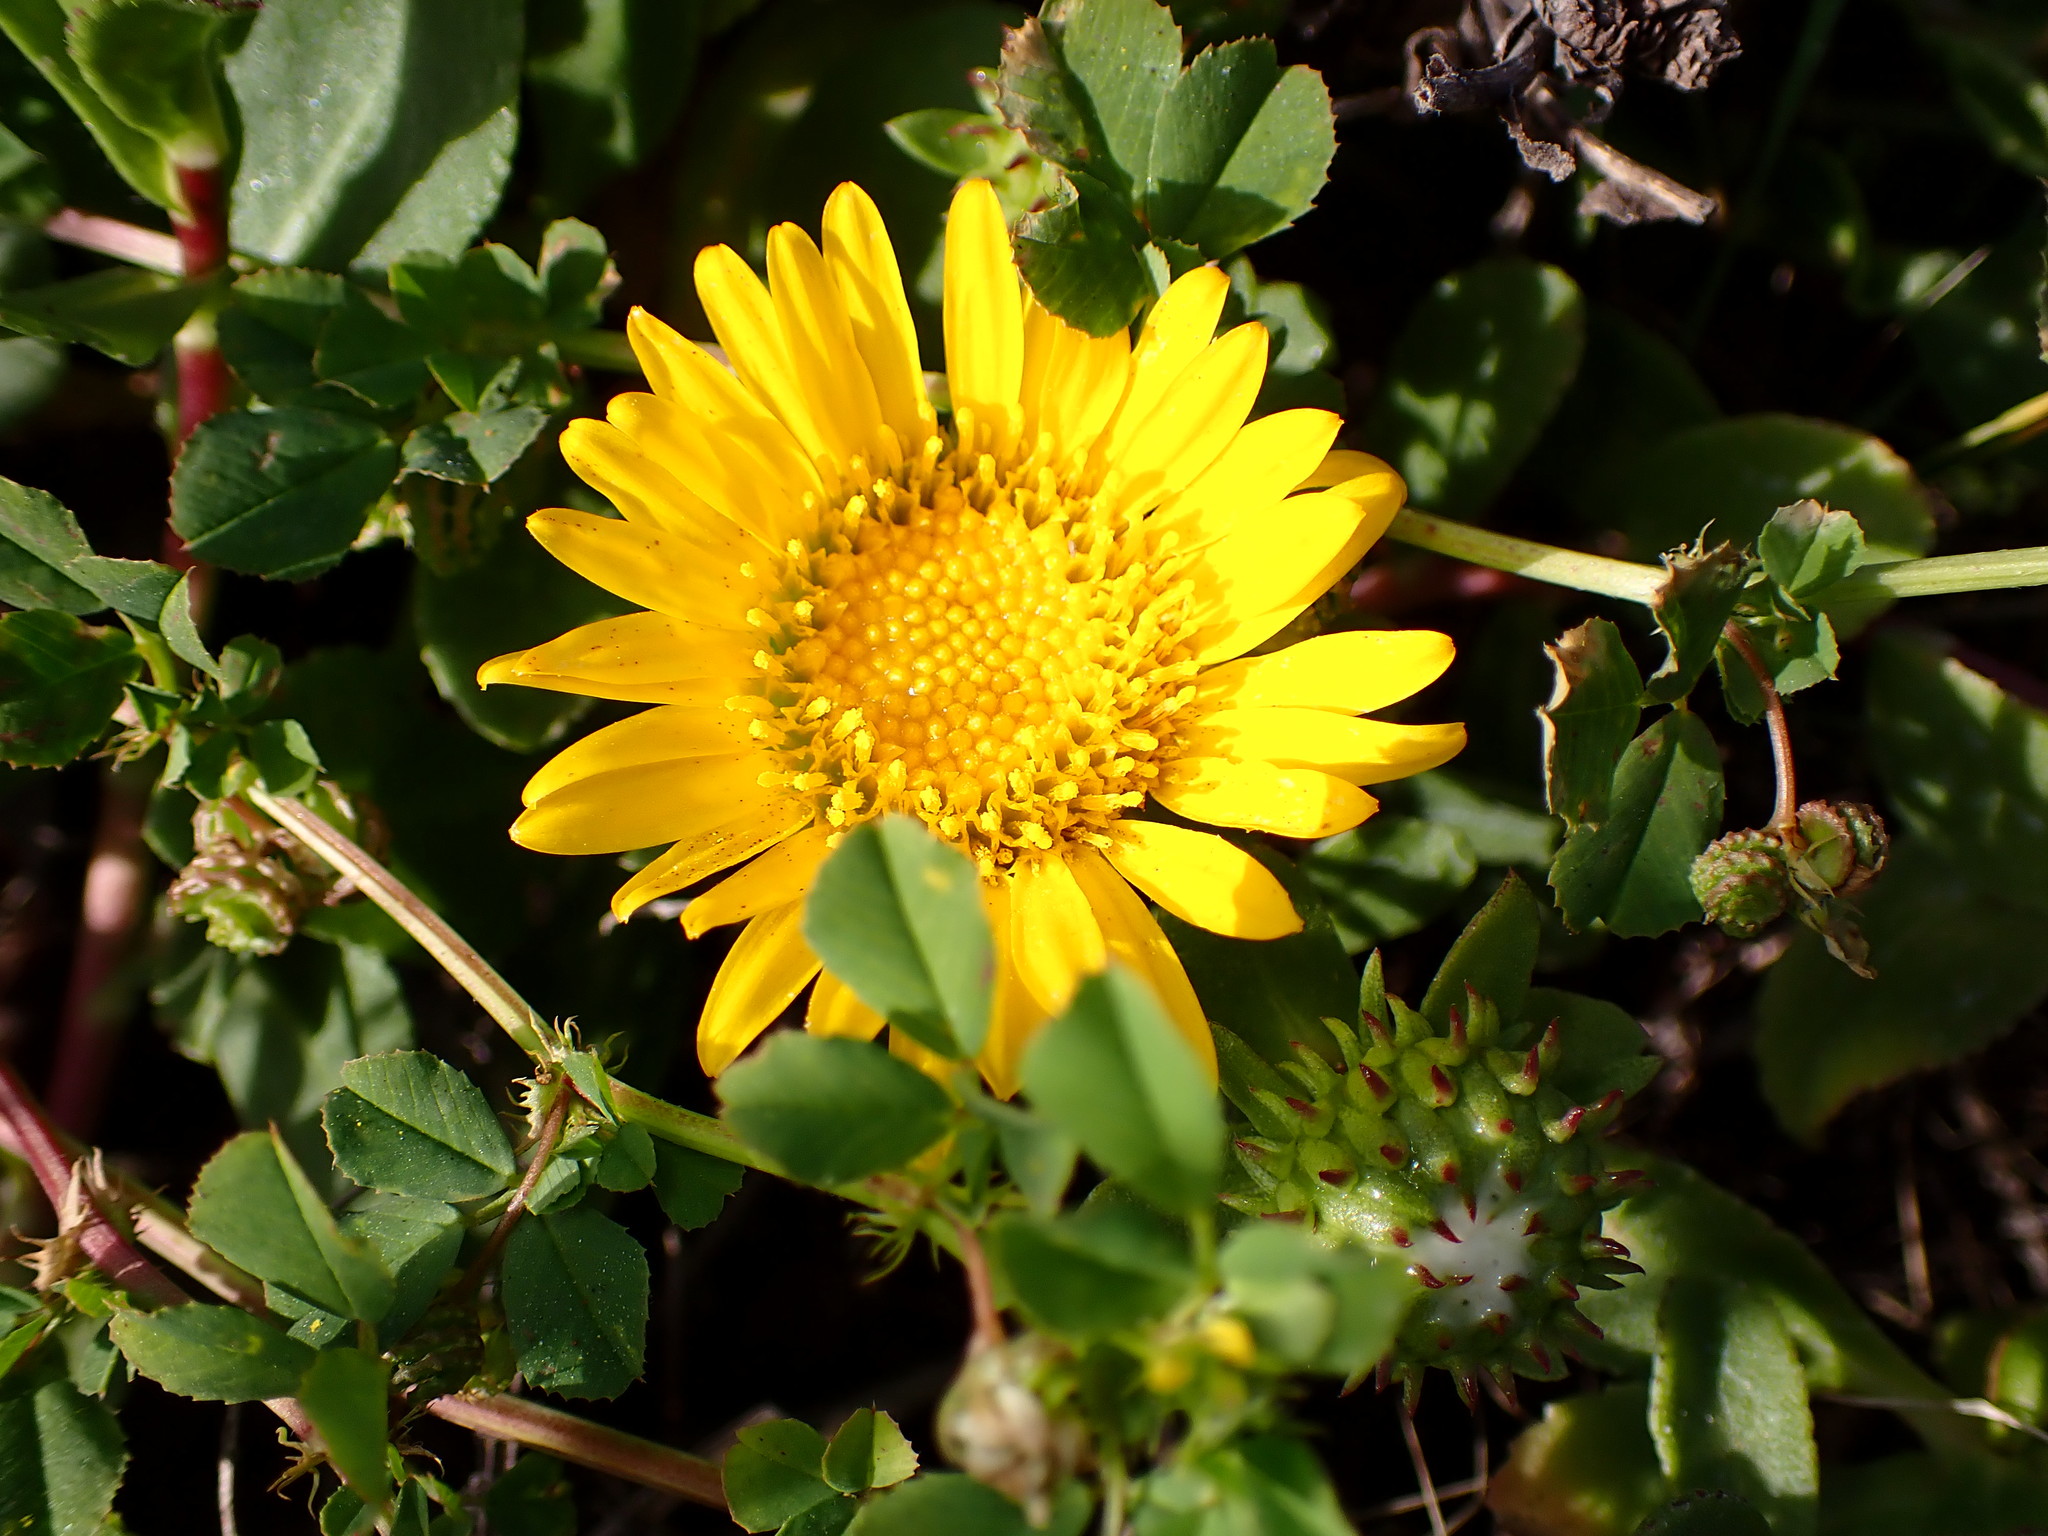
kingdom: Plantae
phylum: Tracheophyta
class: Magnoliopsida
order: Asterales
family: Asteraceae
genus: Grindelia
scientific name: Grindelia hirsutula
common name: Hairy gumweed
